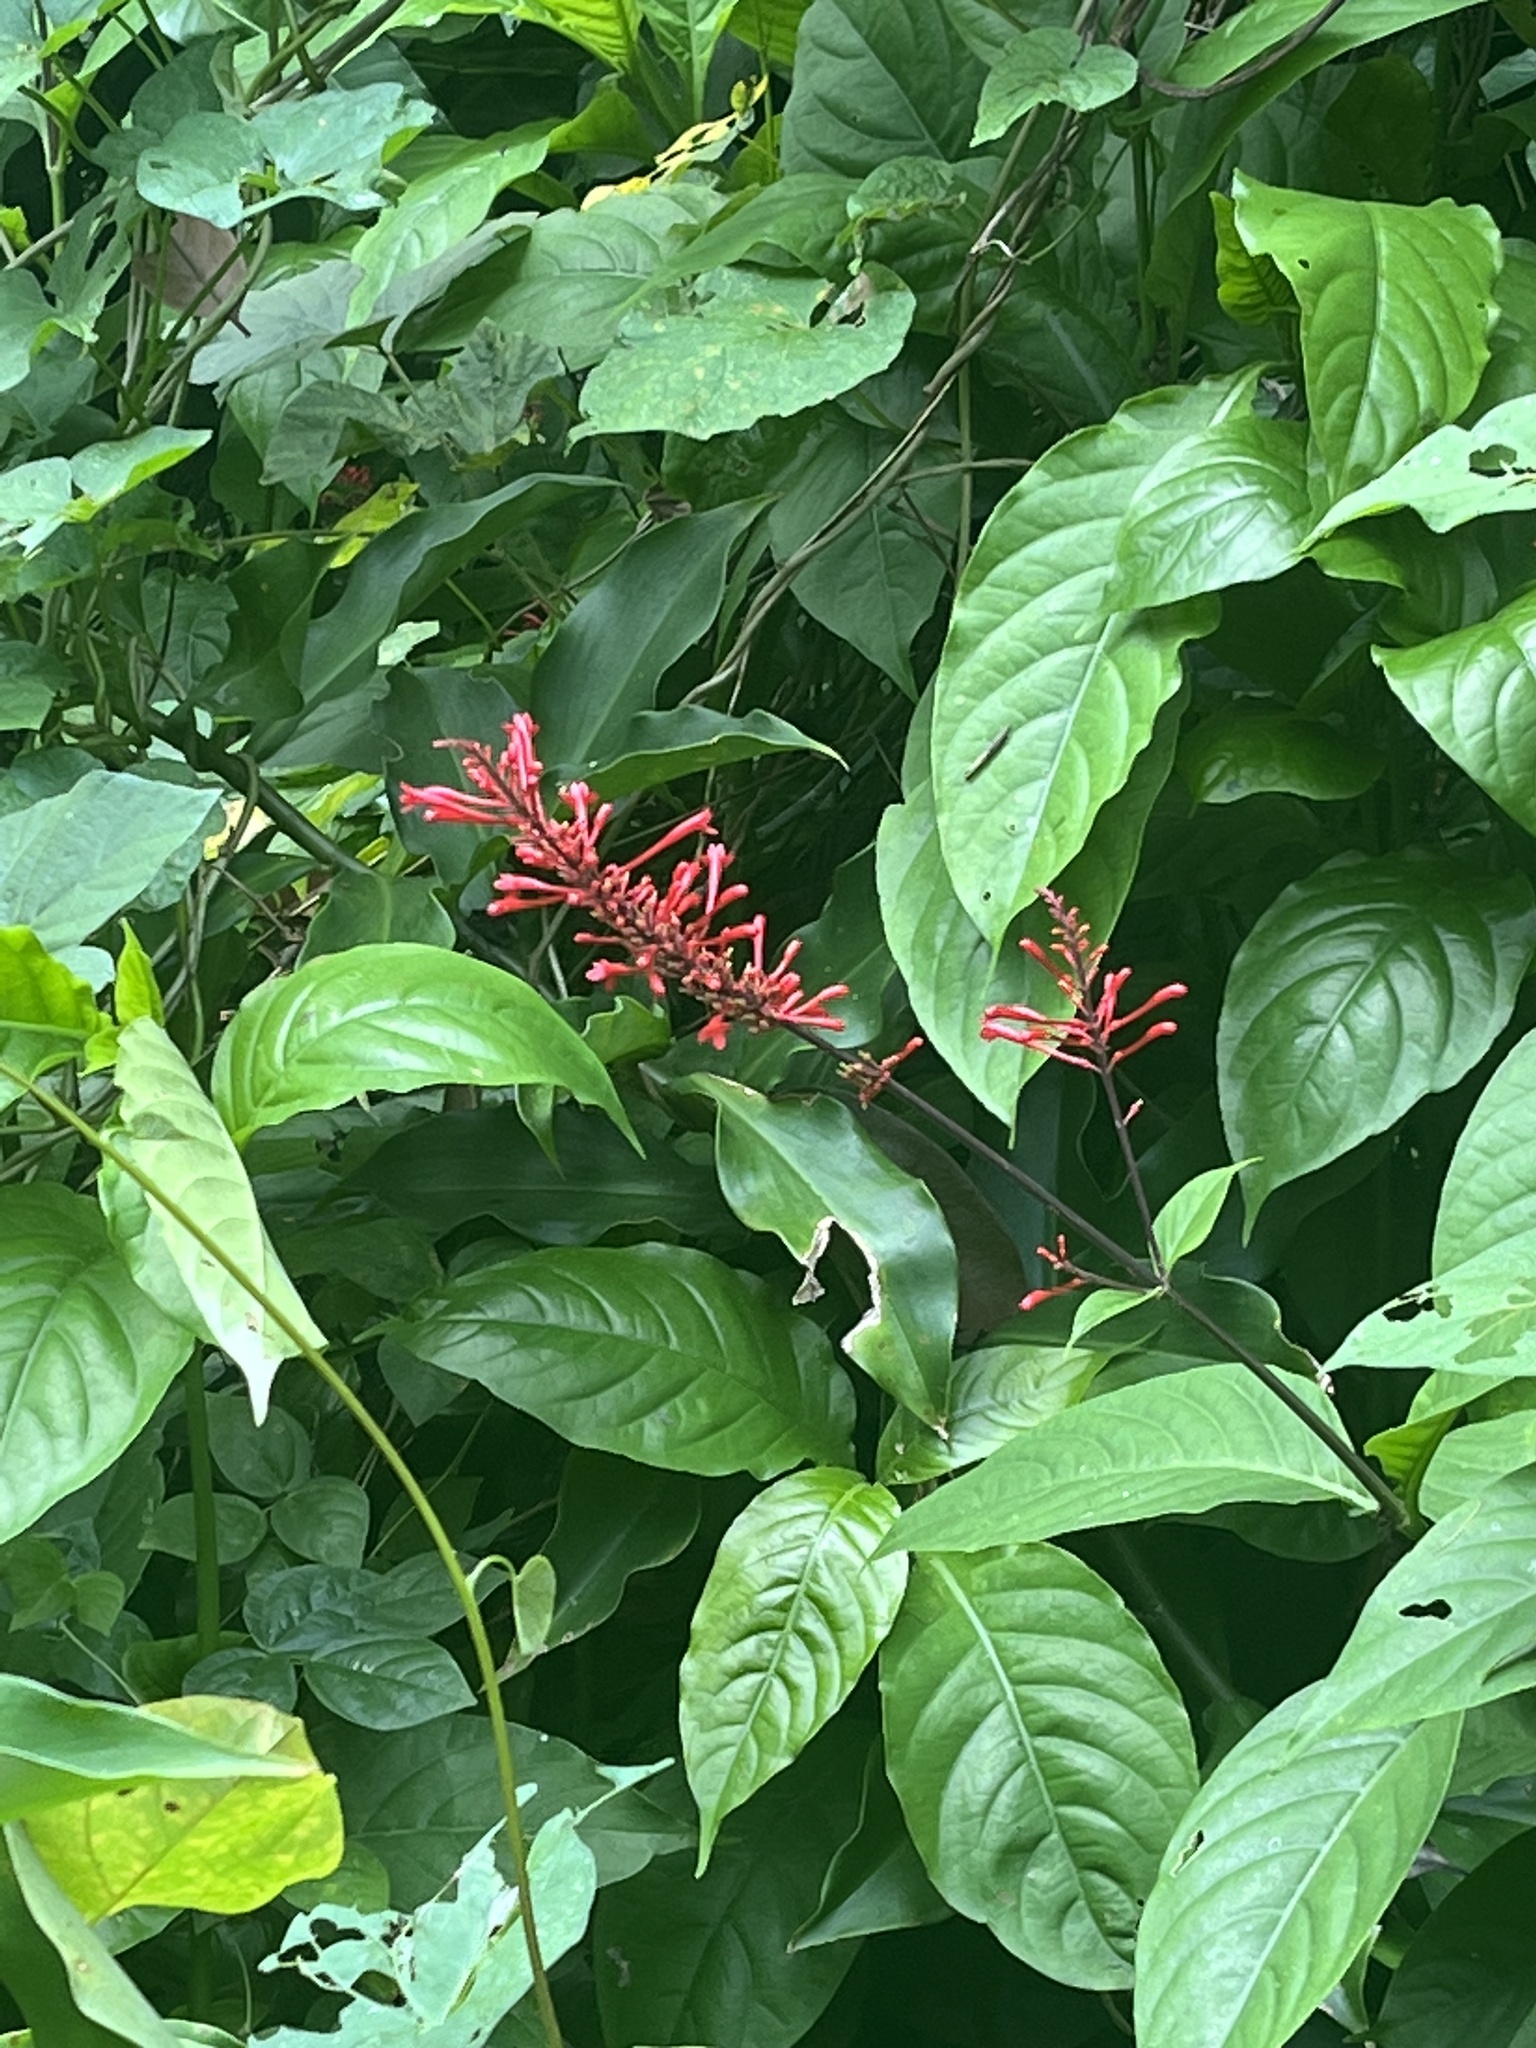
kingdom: Plantae
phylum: Tracheophyta
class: Magnoliopsida
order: Lamiales
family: Acanthaceae
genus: Odontonema
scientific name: Odontonema cuspidatum
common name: Mottled toothedthread
